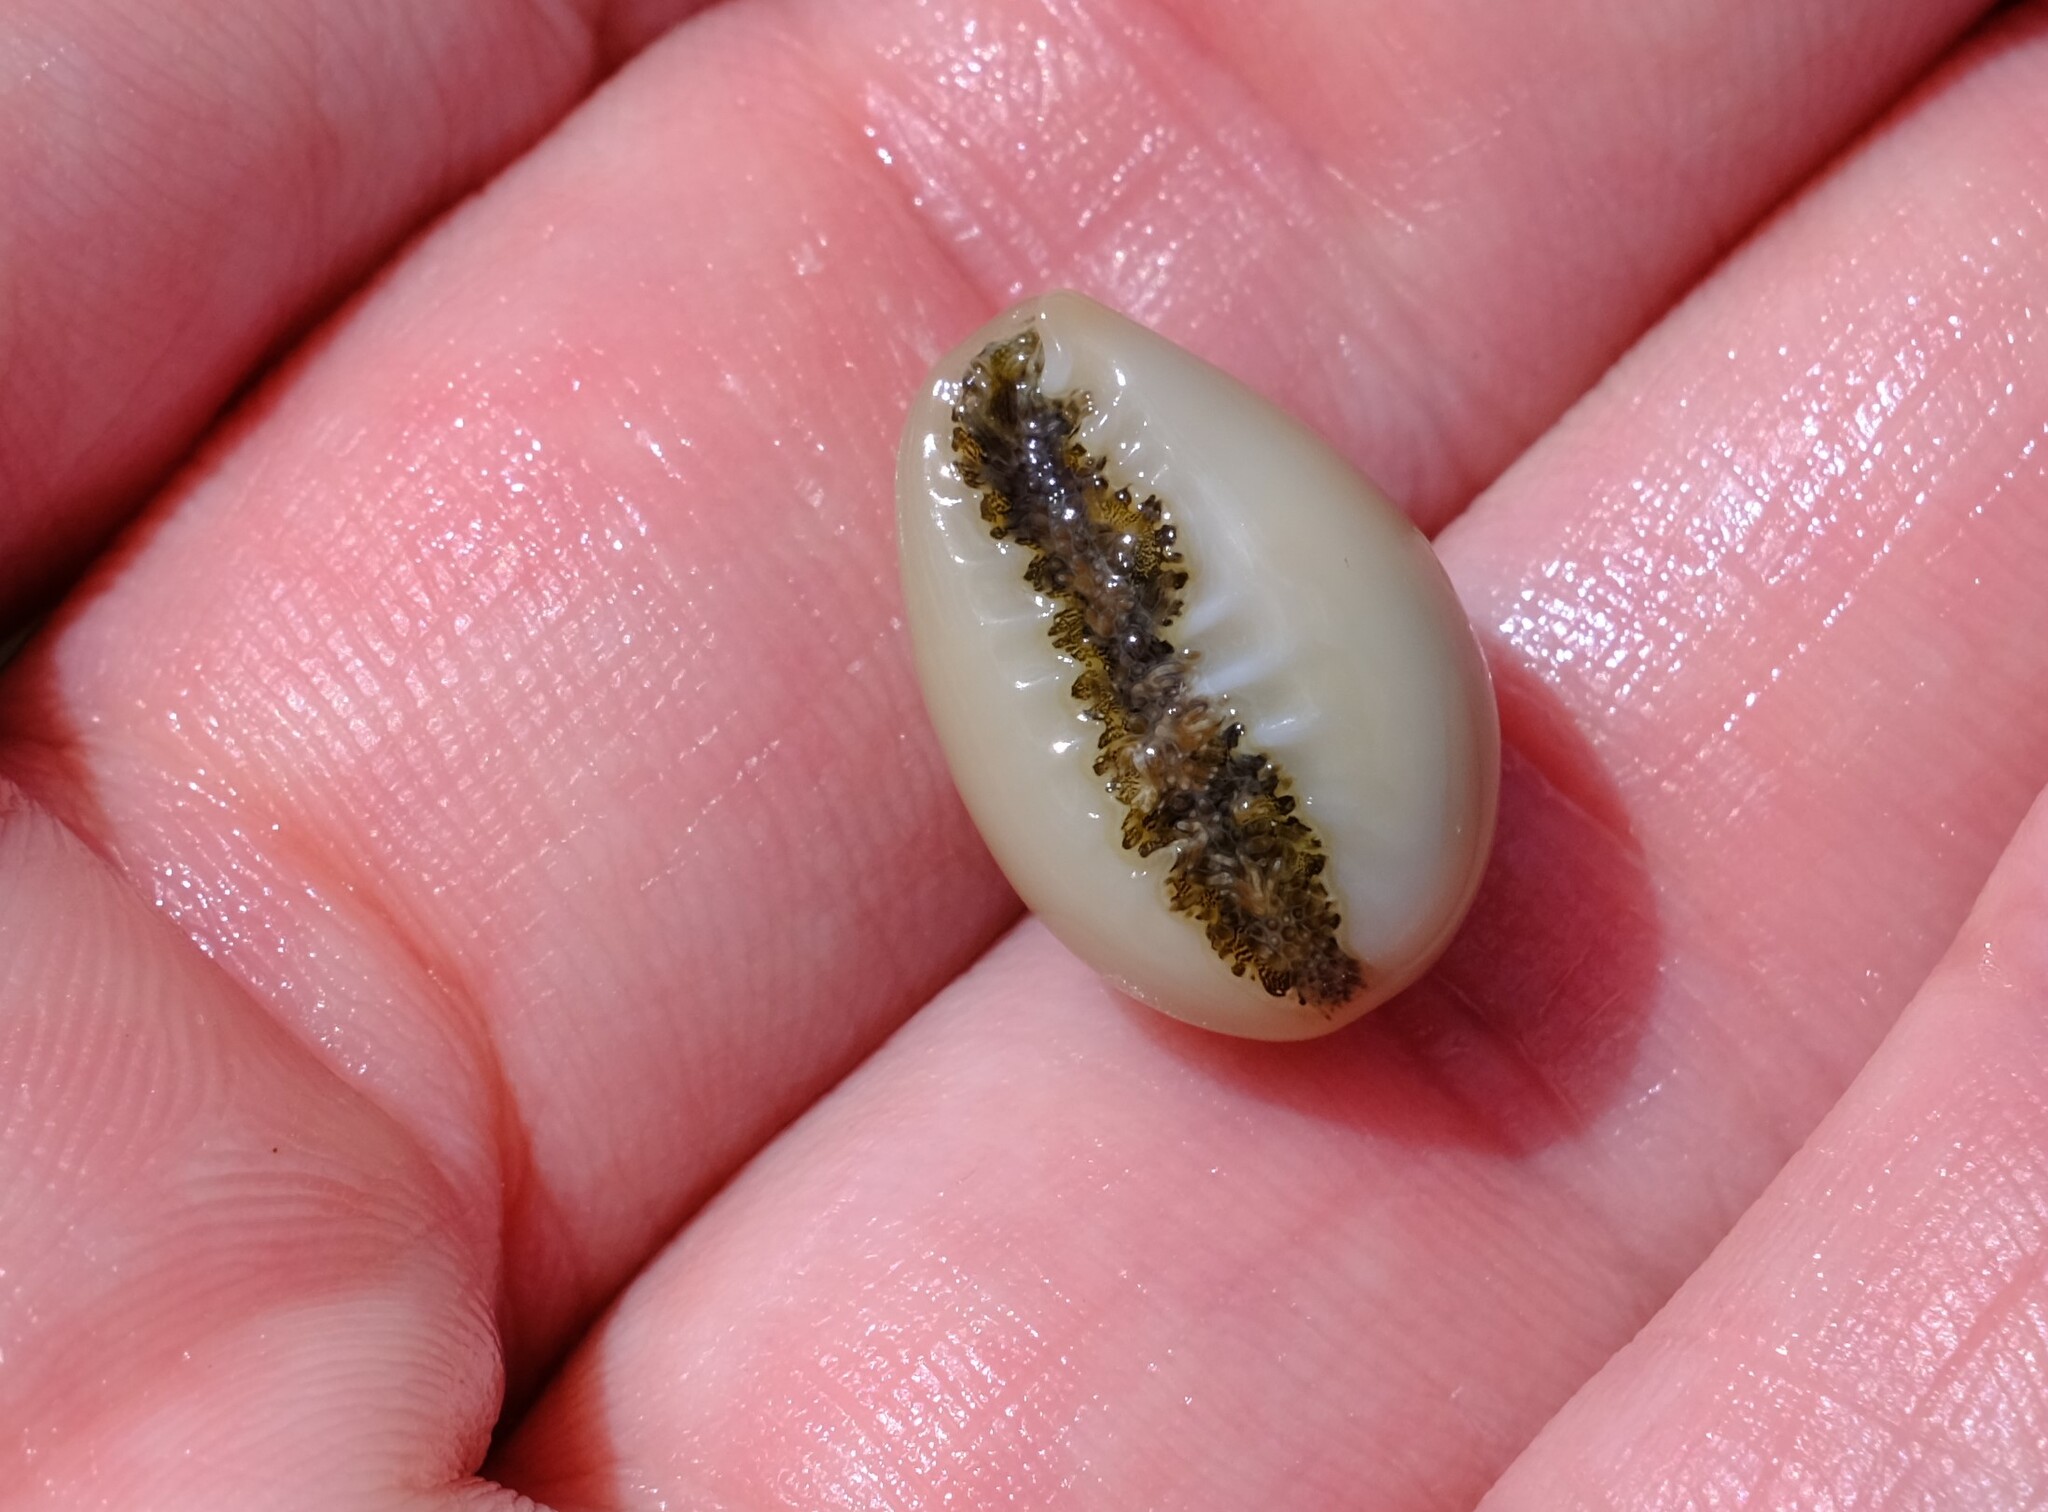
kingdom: Animalia
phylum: Mollusca
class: Gastropoda
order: Littorinimorpha
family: Cypraeidae
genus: Monetaria
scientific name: Monetaria annulus
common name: Ring cowrie
